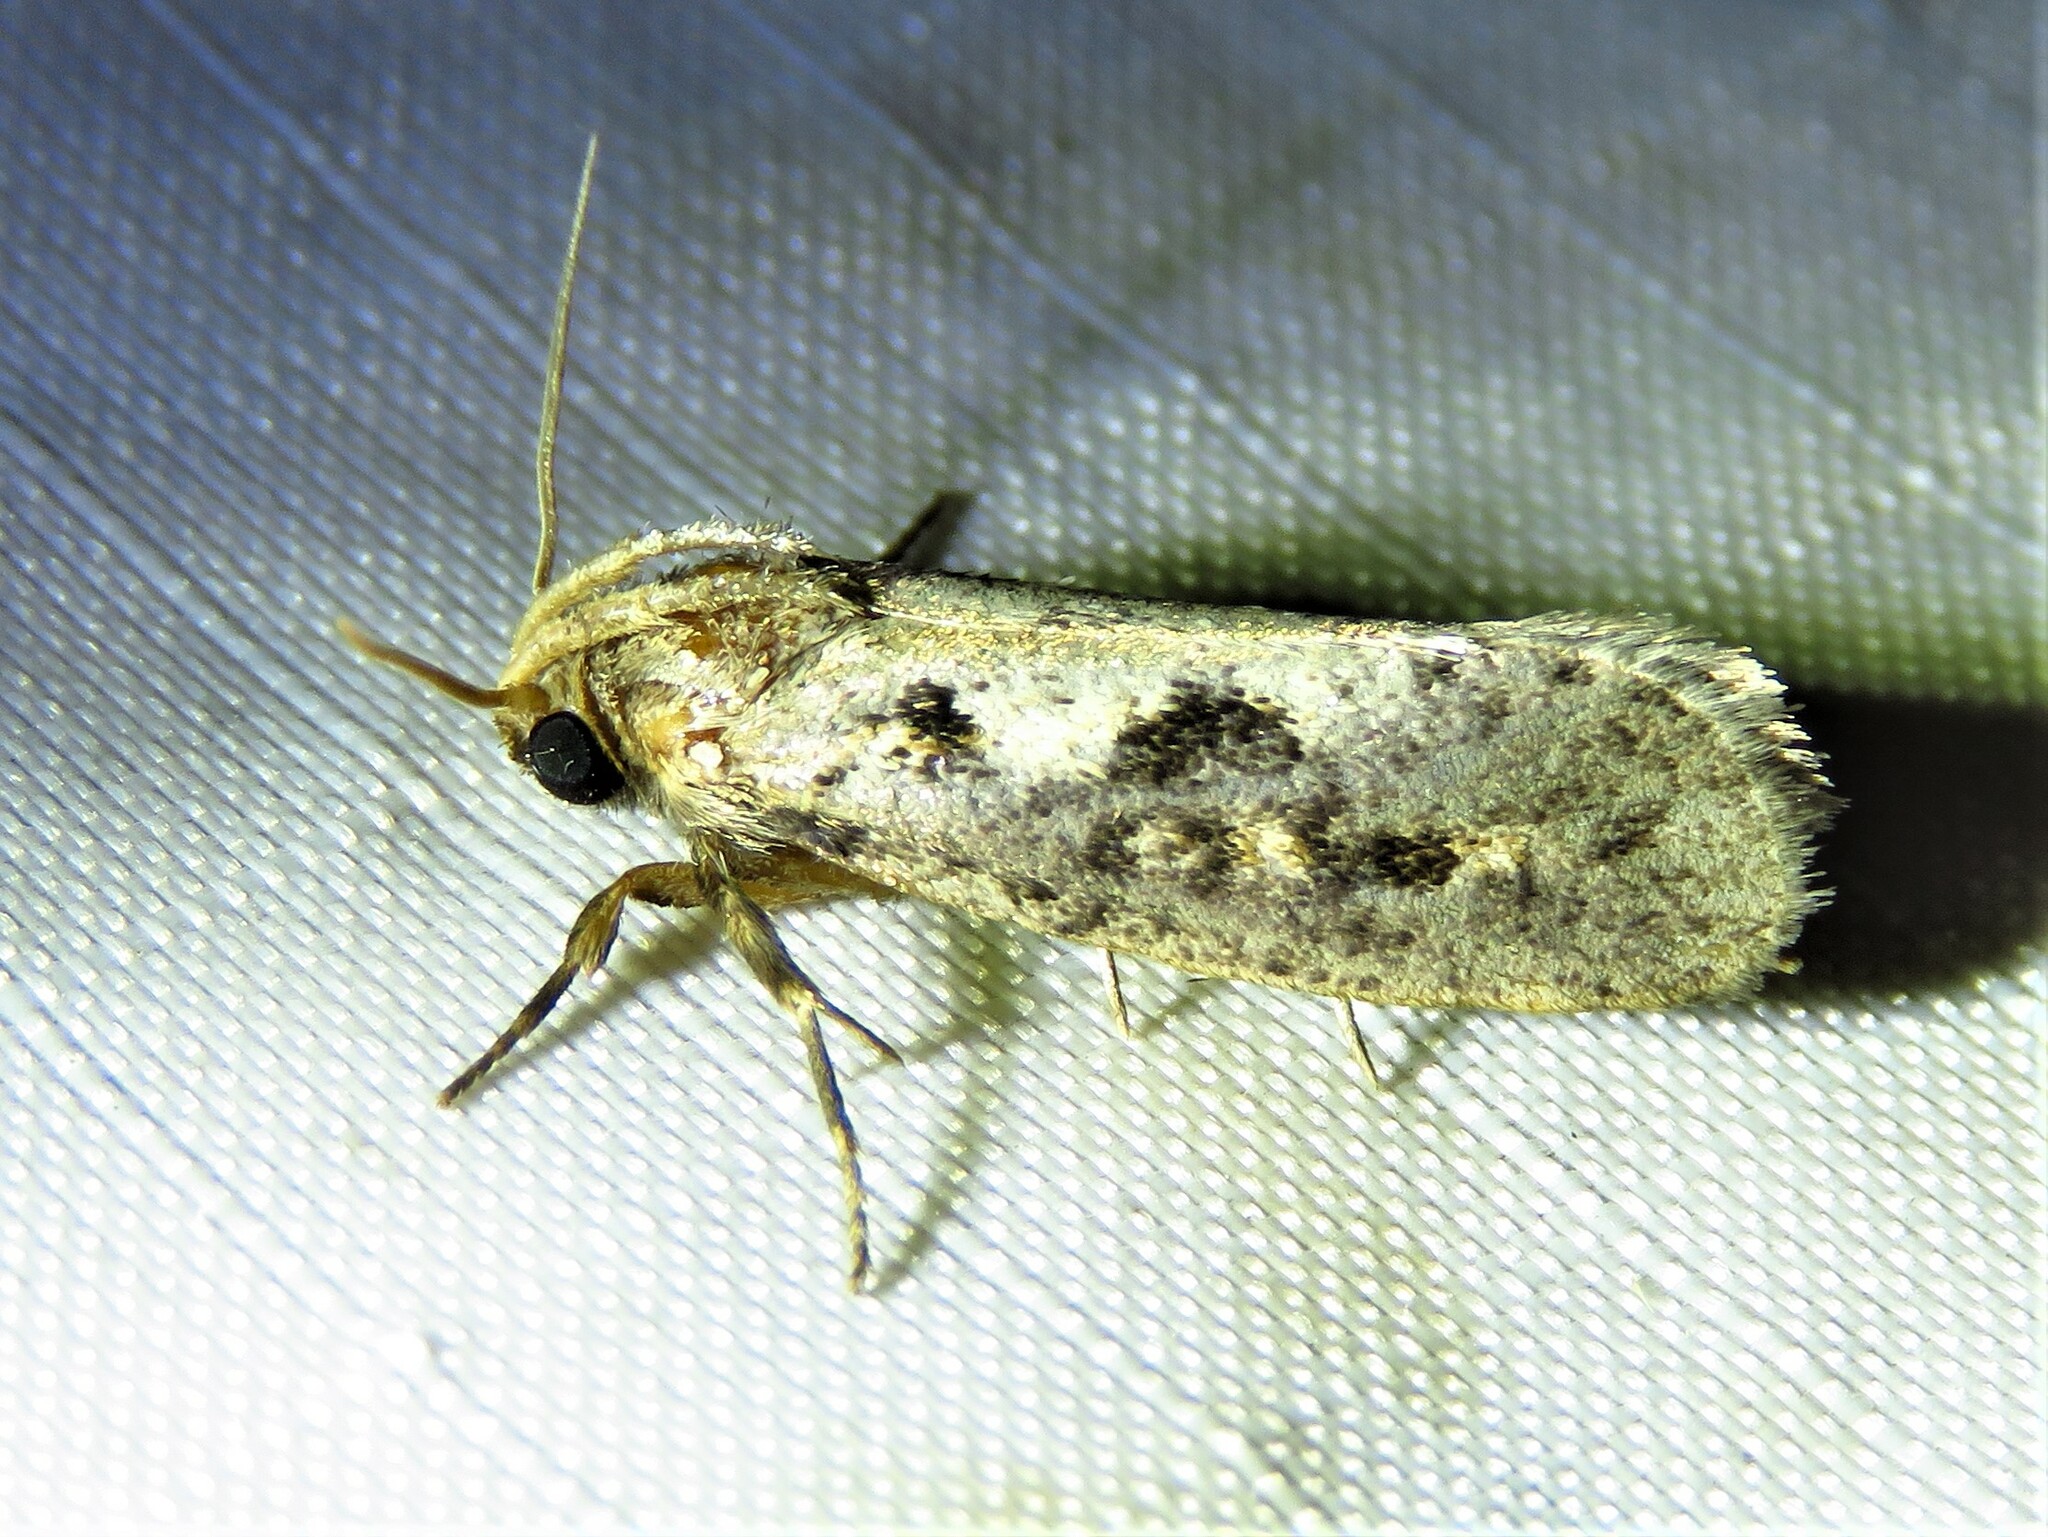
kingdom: Animalia
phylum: Arthropoda
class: Insecta
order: Lepidoptera
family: Tineidae
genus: Acrolophus
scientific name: Acrolophus popeanella
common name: Clemens' grass tubeworm moth
